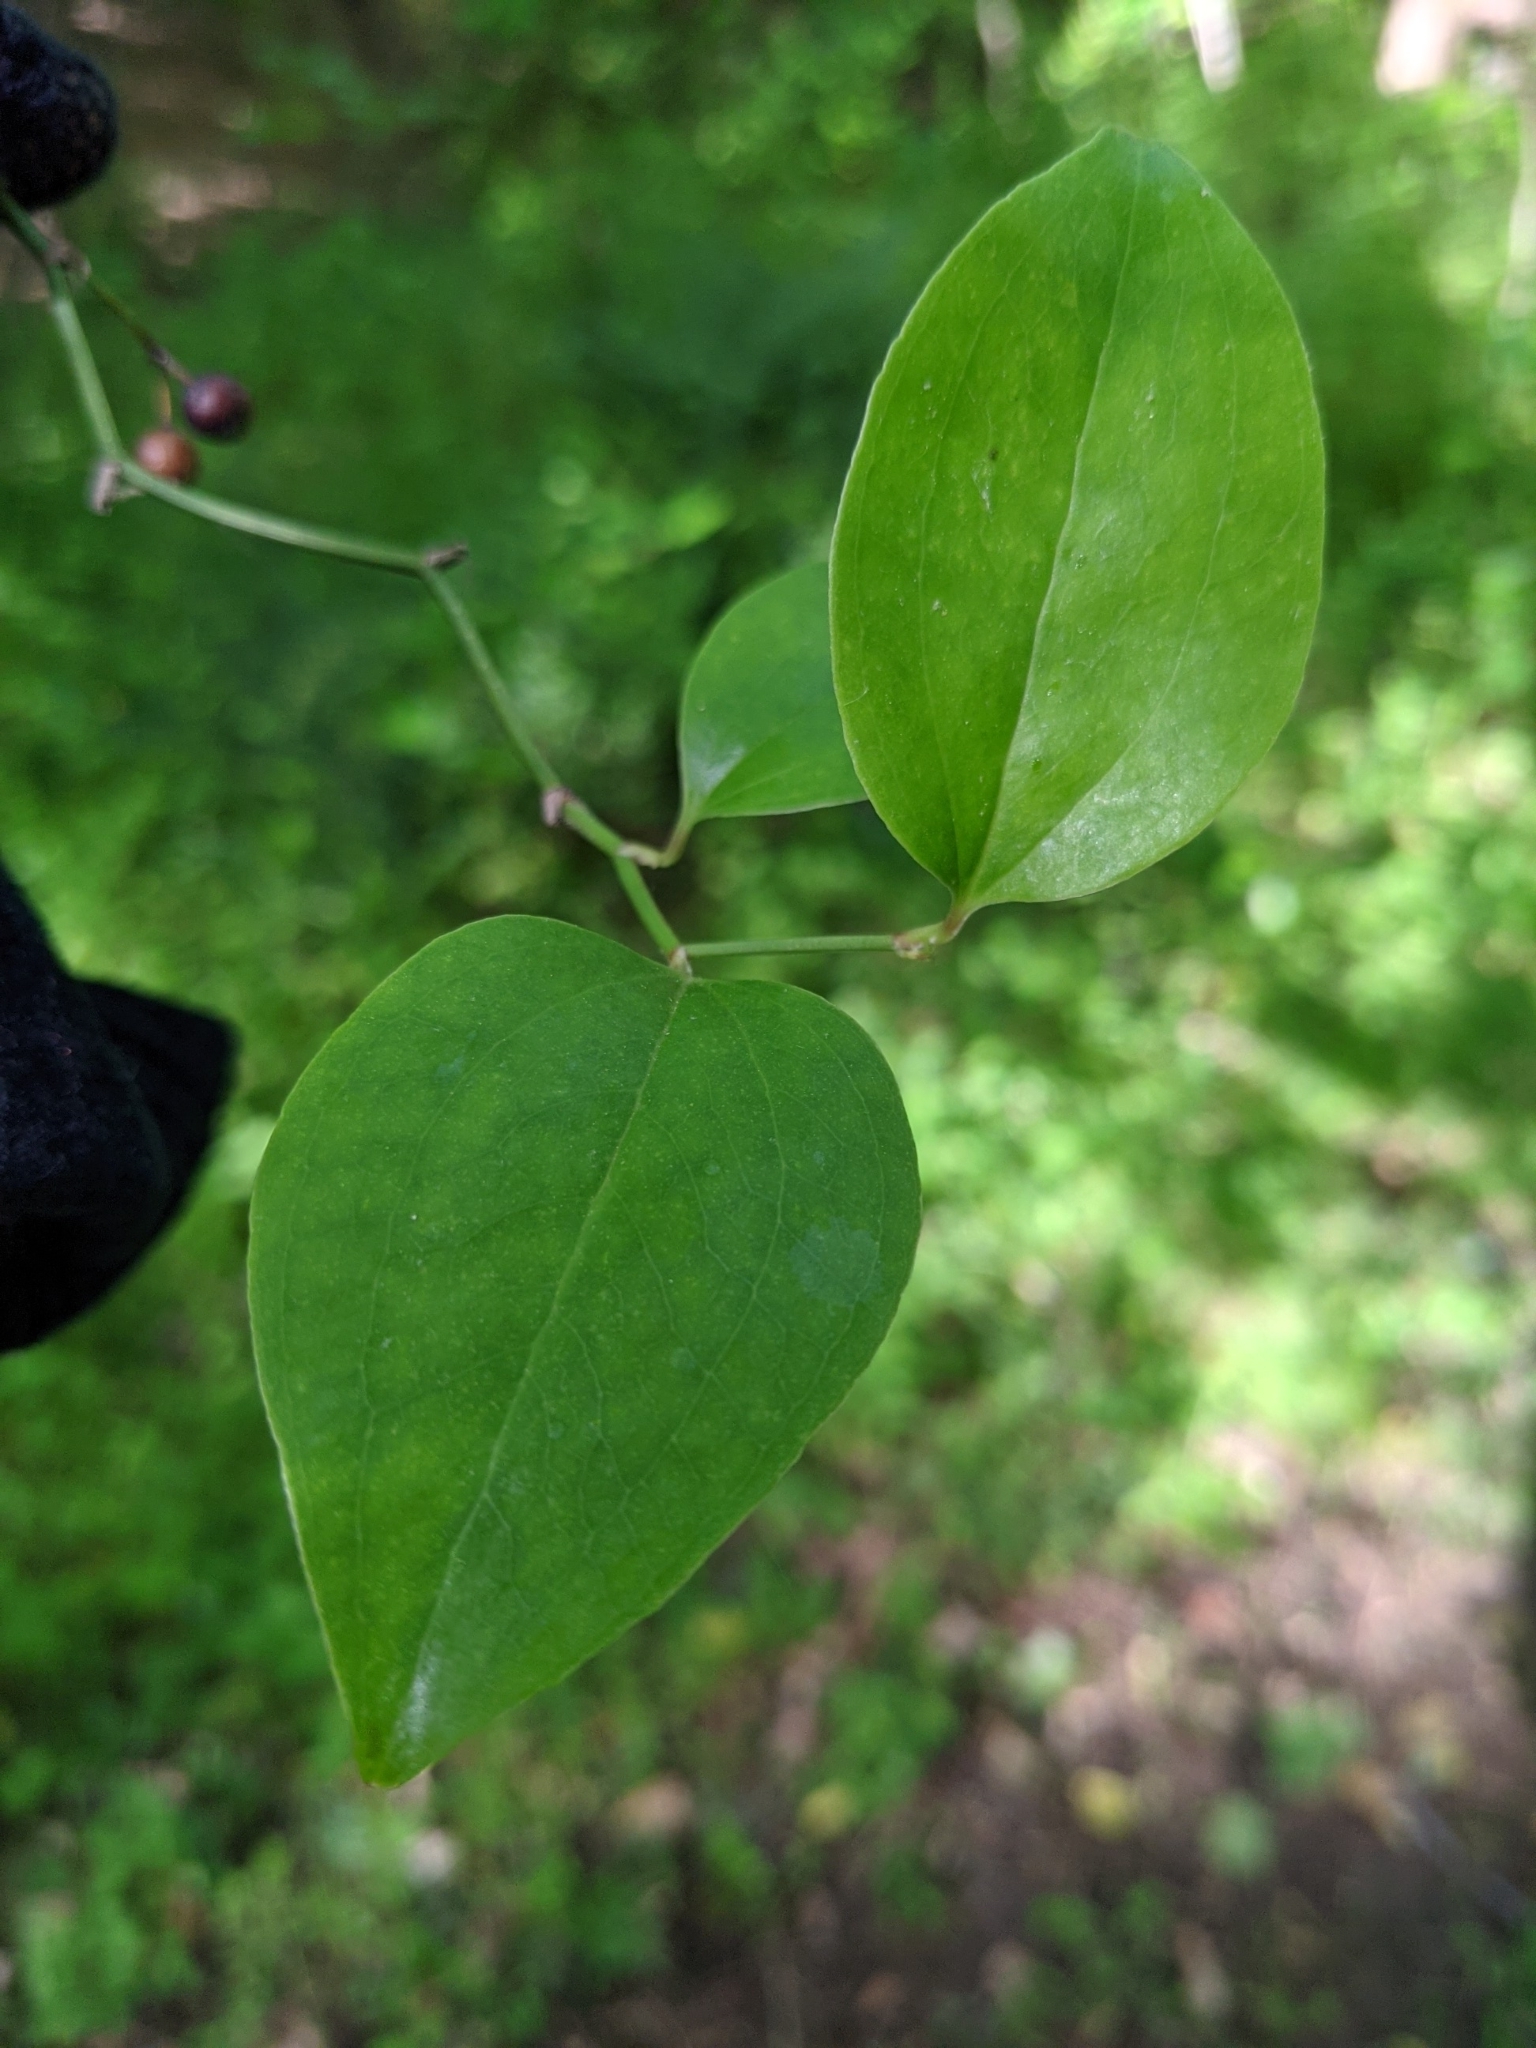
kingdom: Plantae
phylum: Tracheophyta
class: Liliopsida
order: Liliales
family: Smilacaceae
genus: Smilax
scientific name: Smilax rotundifolia
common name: Bullbriar
